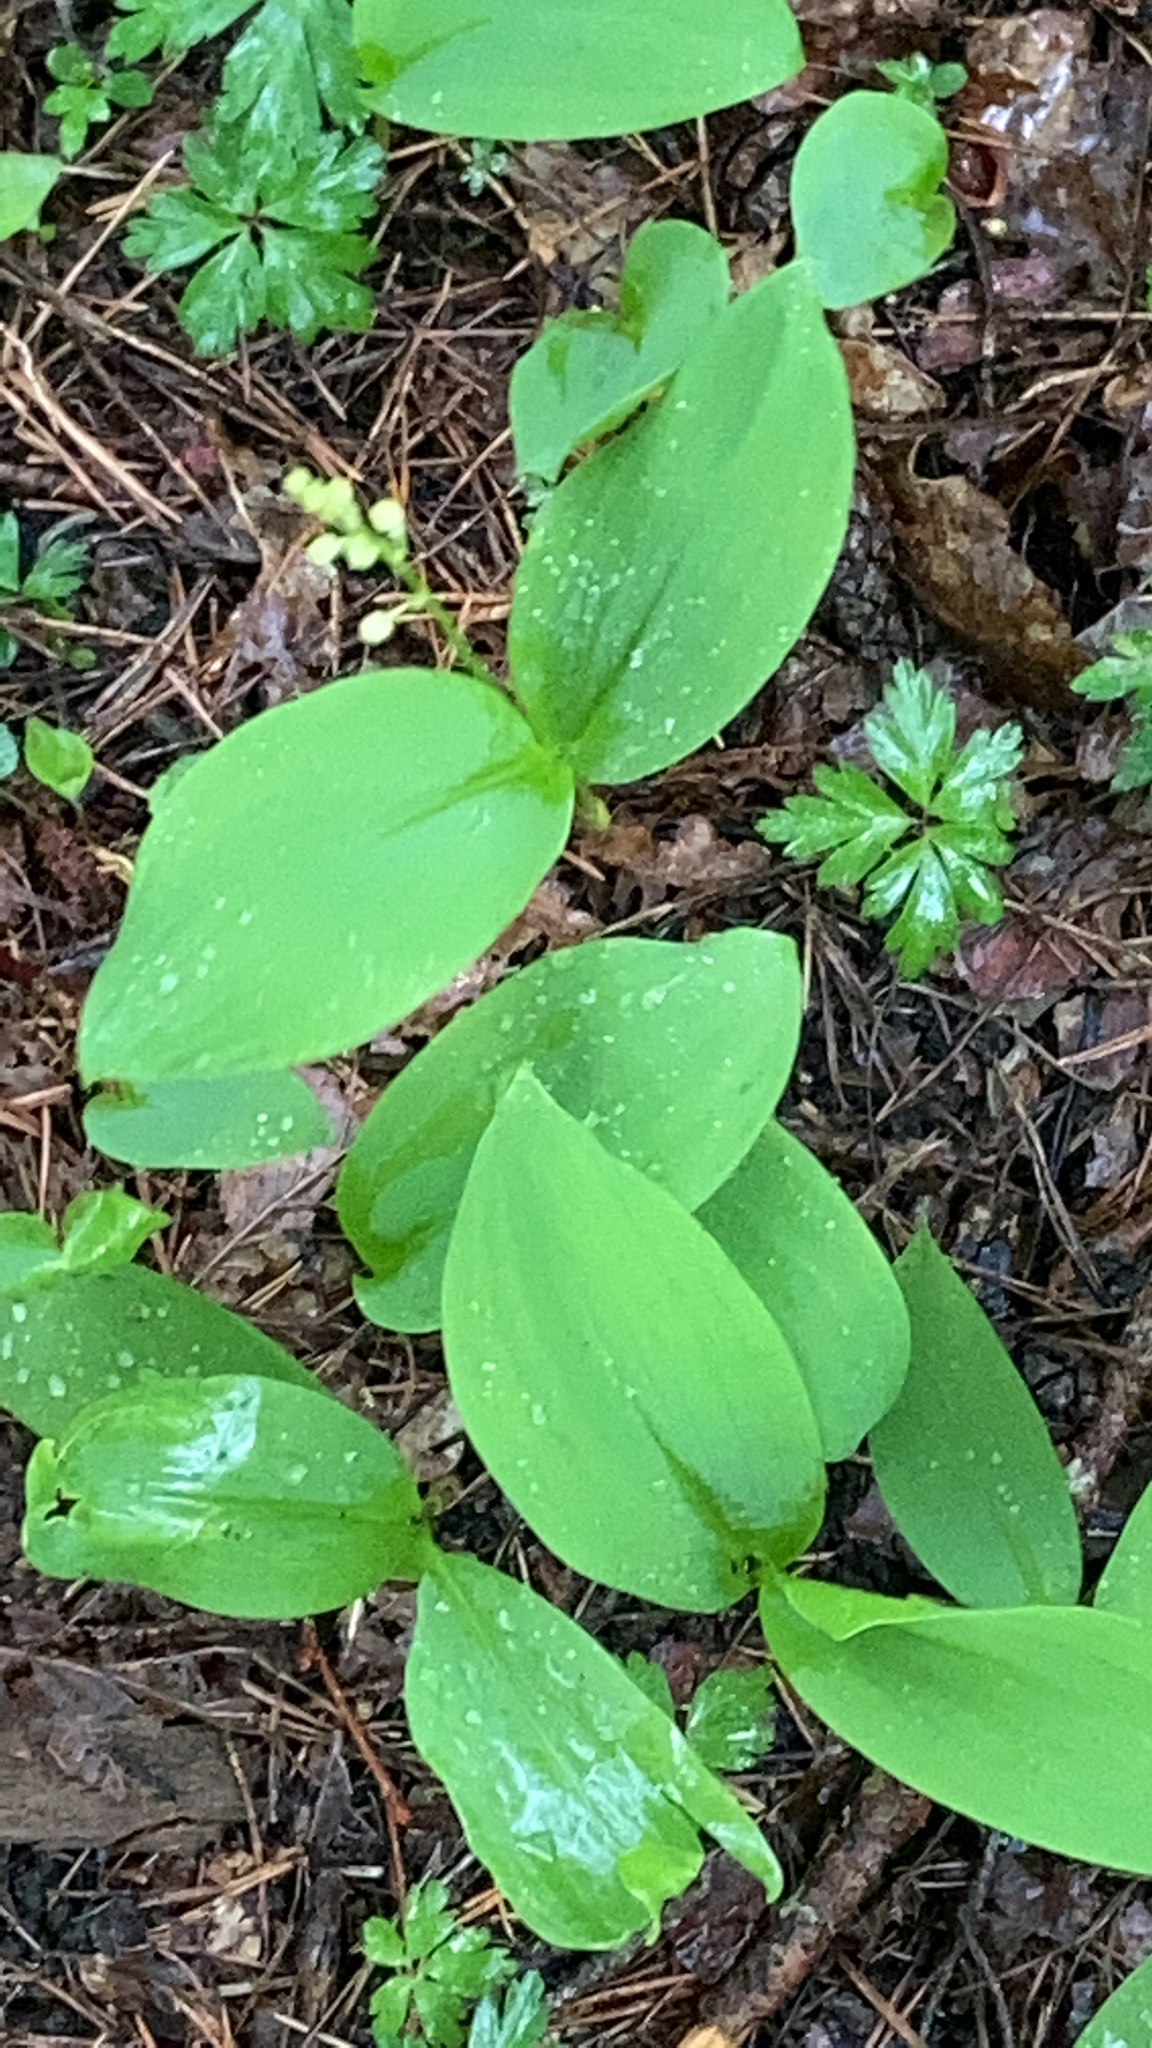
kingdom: Plantae
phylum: Tracheophyta
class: Liliopsida
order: Asparagales
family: Asparagaceae
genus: Convallaria
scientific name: Convallaria majalis
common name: Lily-of-the-valley
